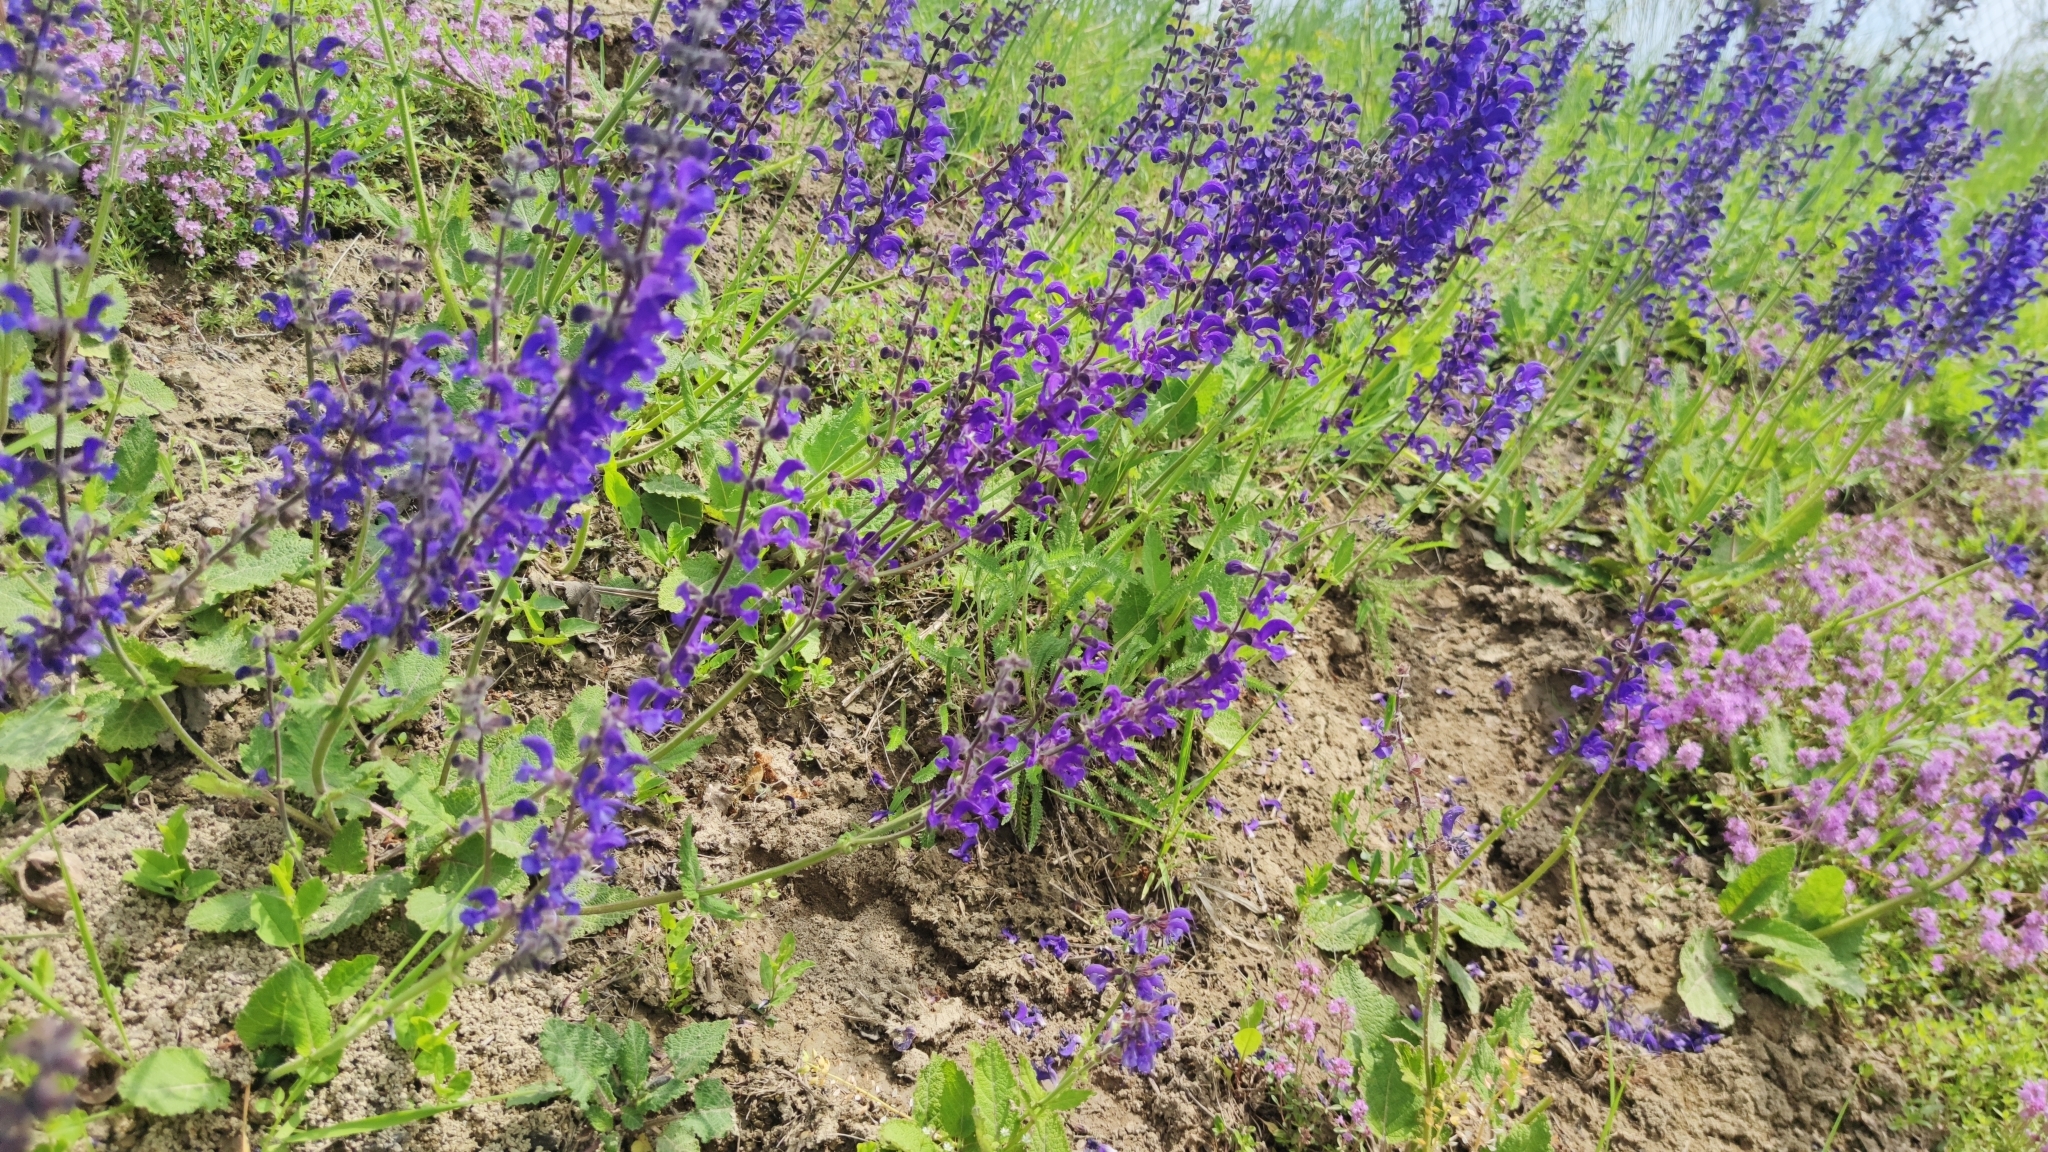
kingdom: Plantae
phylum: Tracheophyta
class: Magnoliopsida
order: Lamiales
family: Lamiaceae
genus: Salvia
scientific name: Salvia pratensis
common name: Meadow sage
